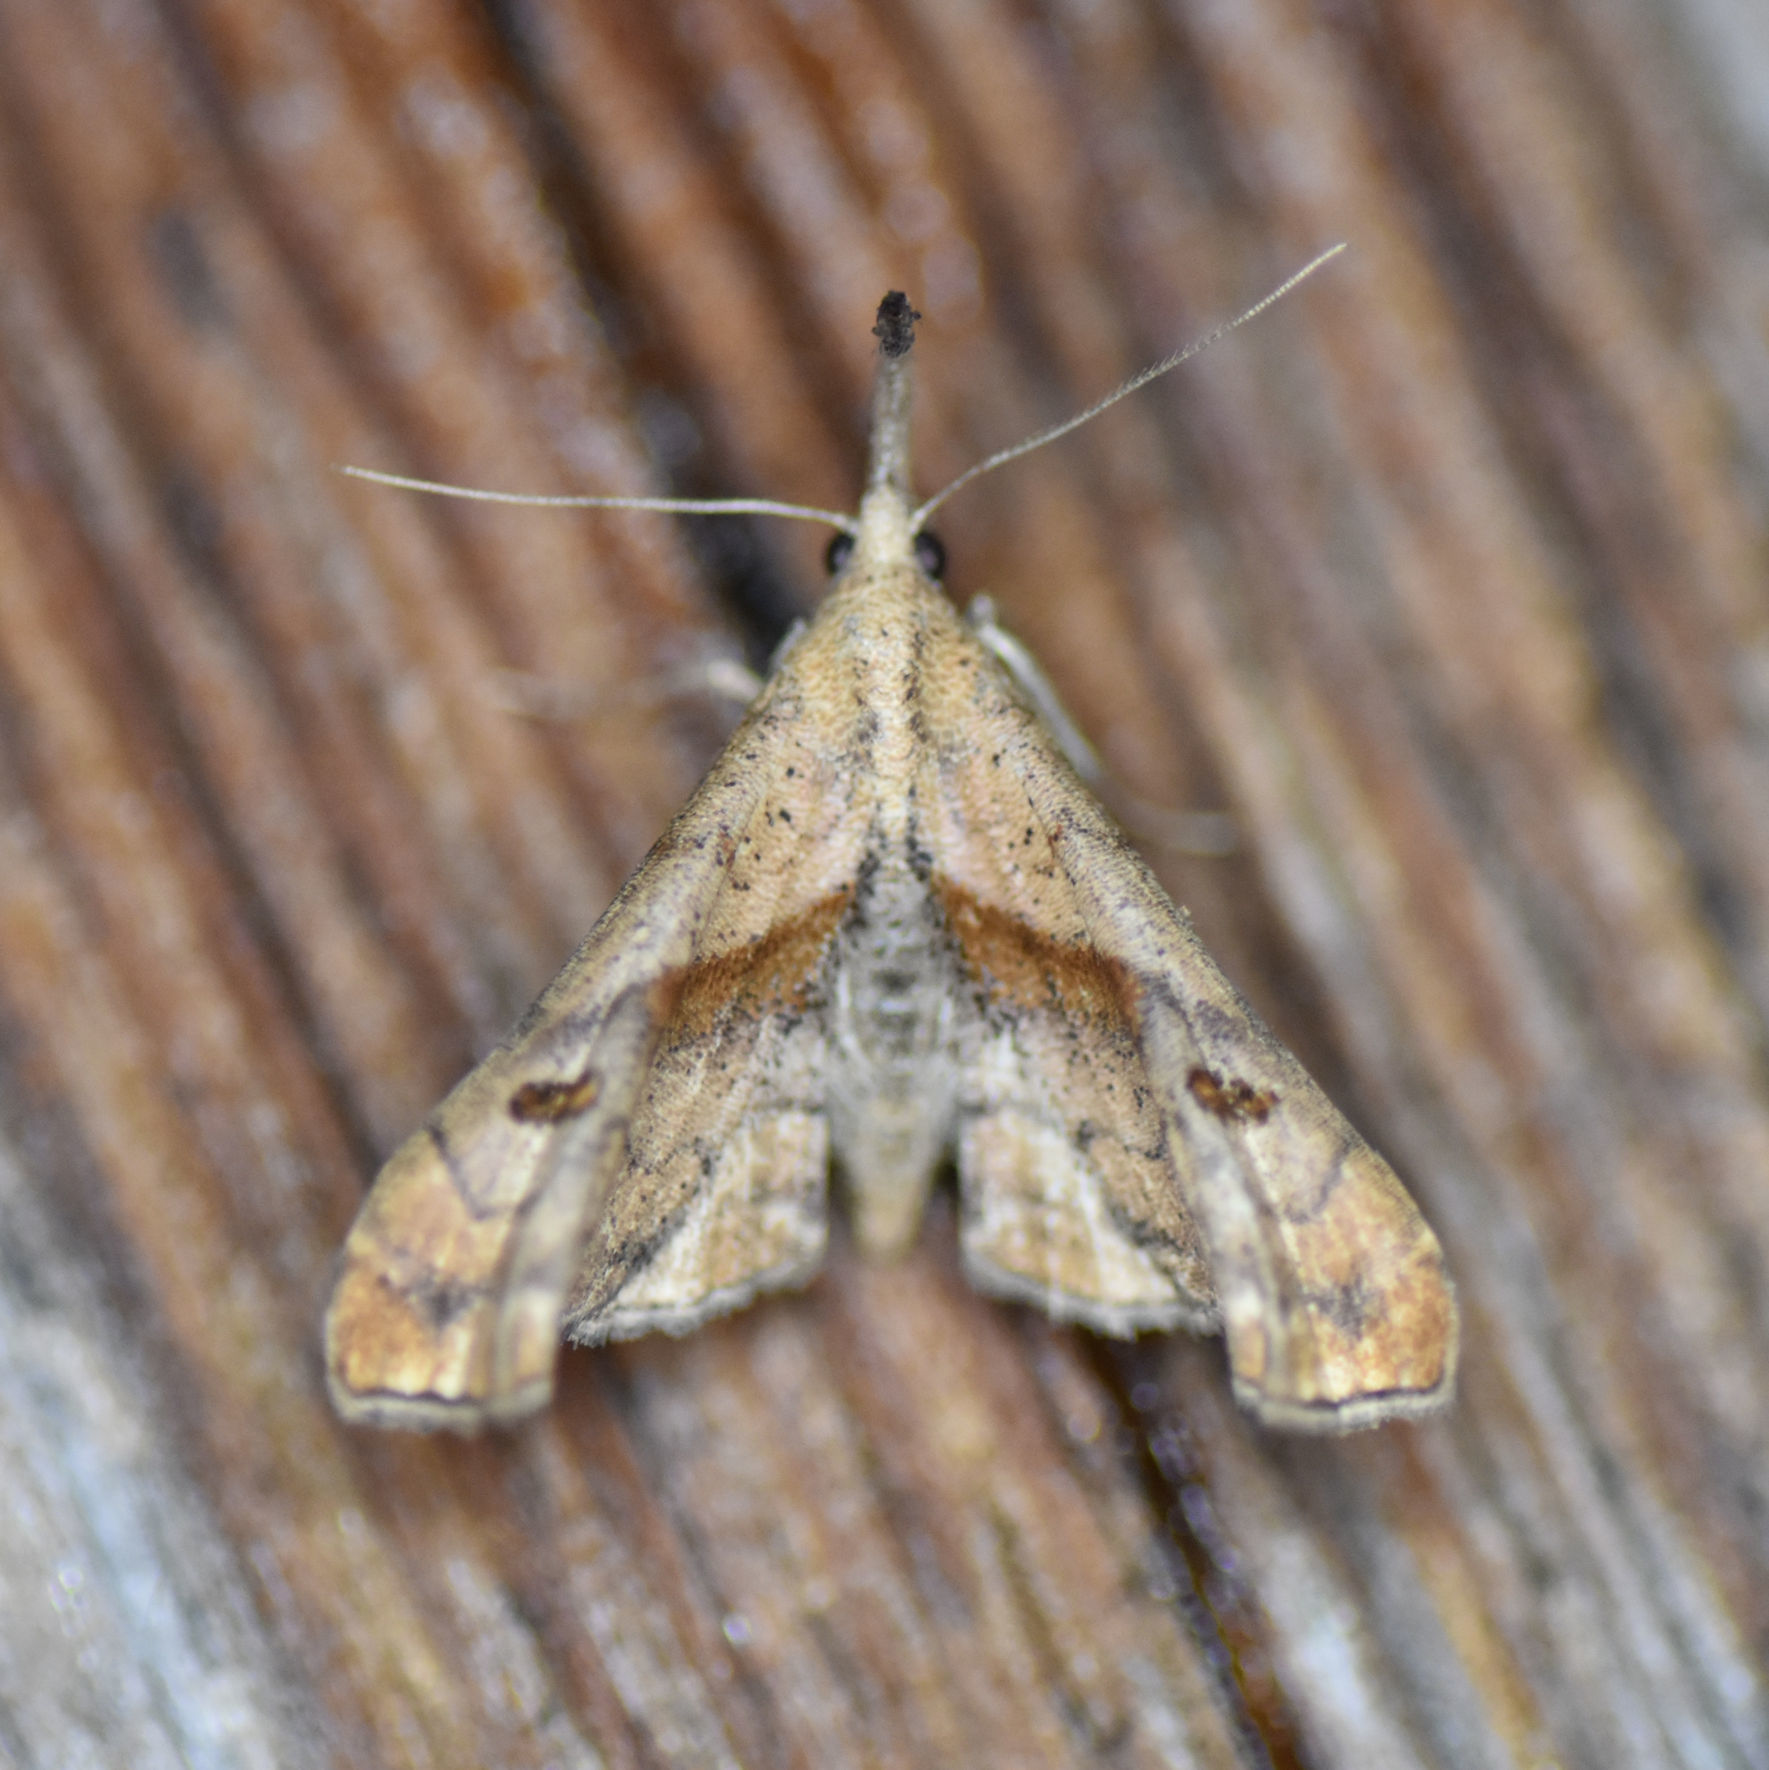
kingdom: Animalia
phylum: Arthropoda
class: Insecta
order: Lepidoptera
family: Erebidae
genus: Palthis
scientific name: Palthis angulalis
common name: Dark-spotted palthis moth
